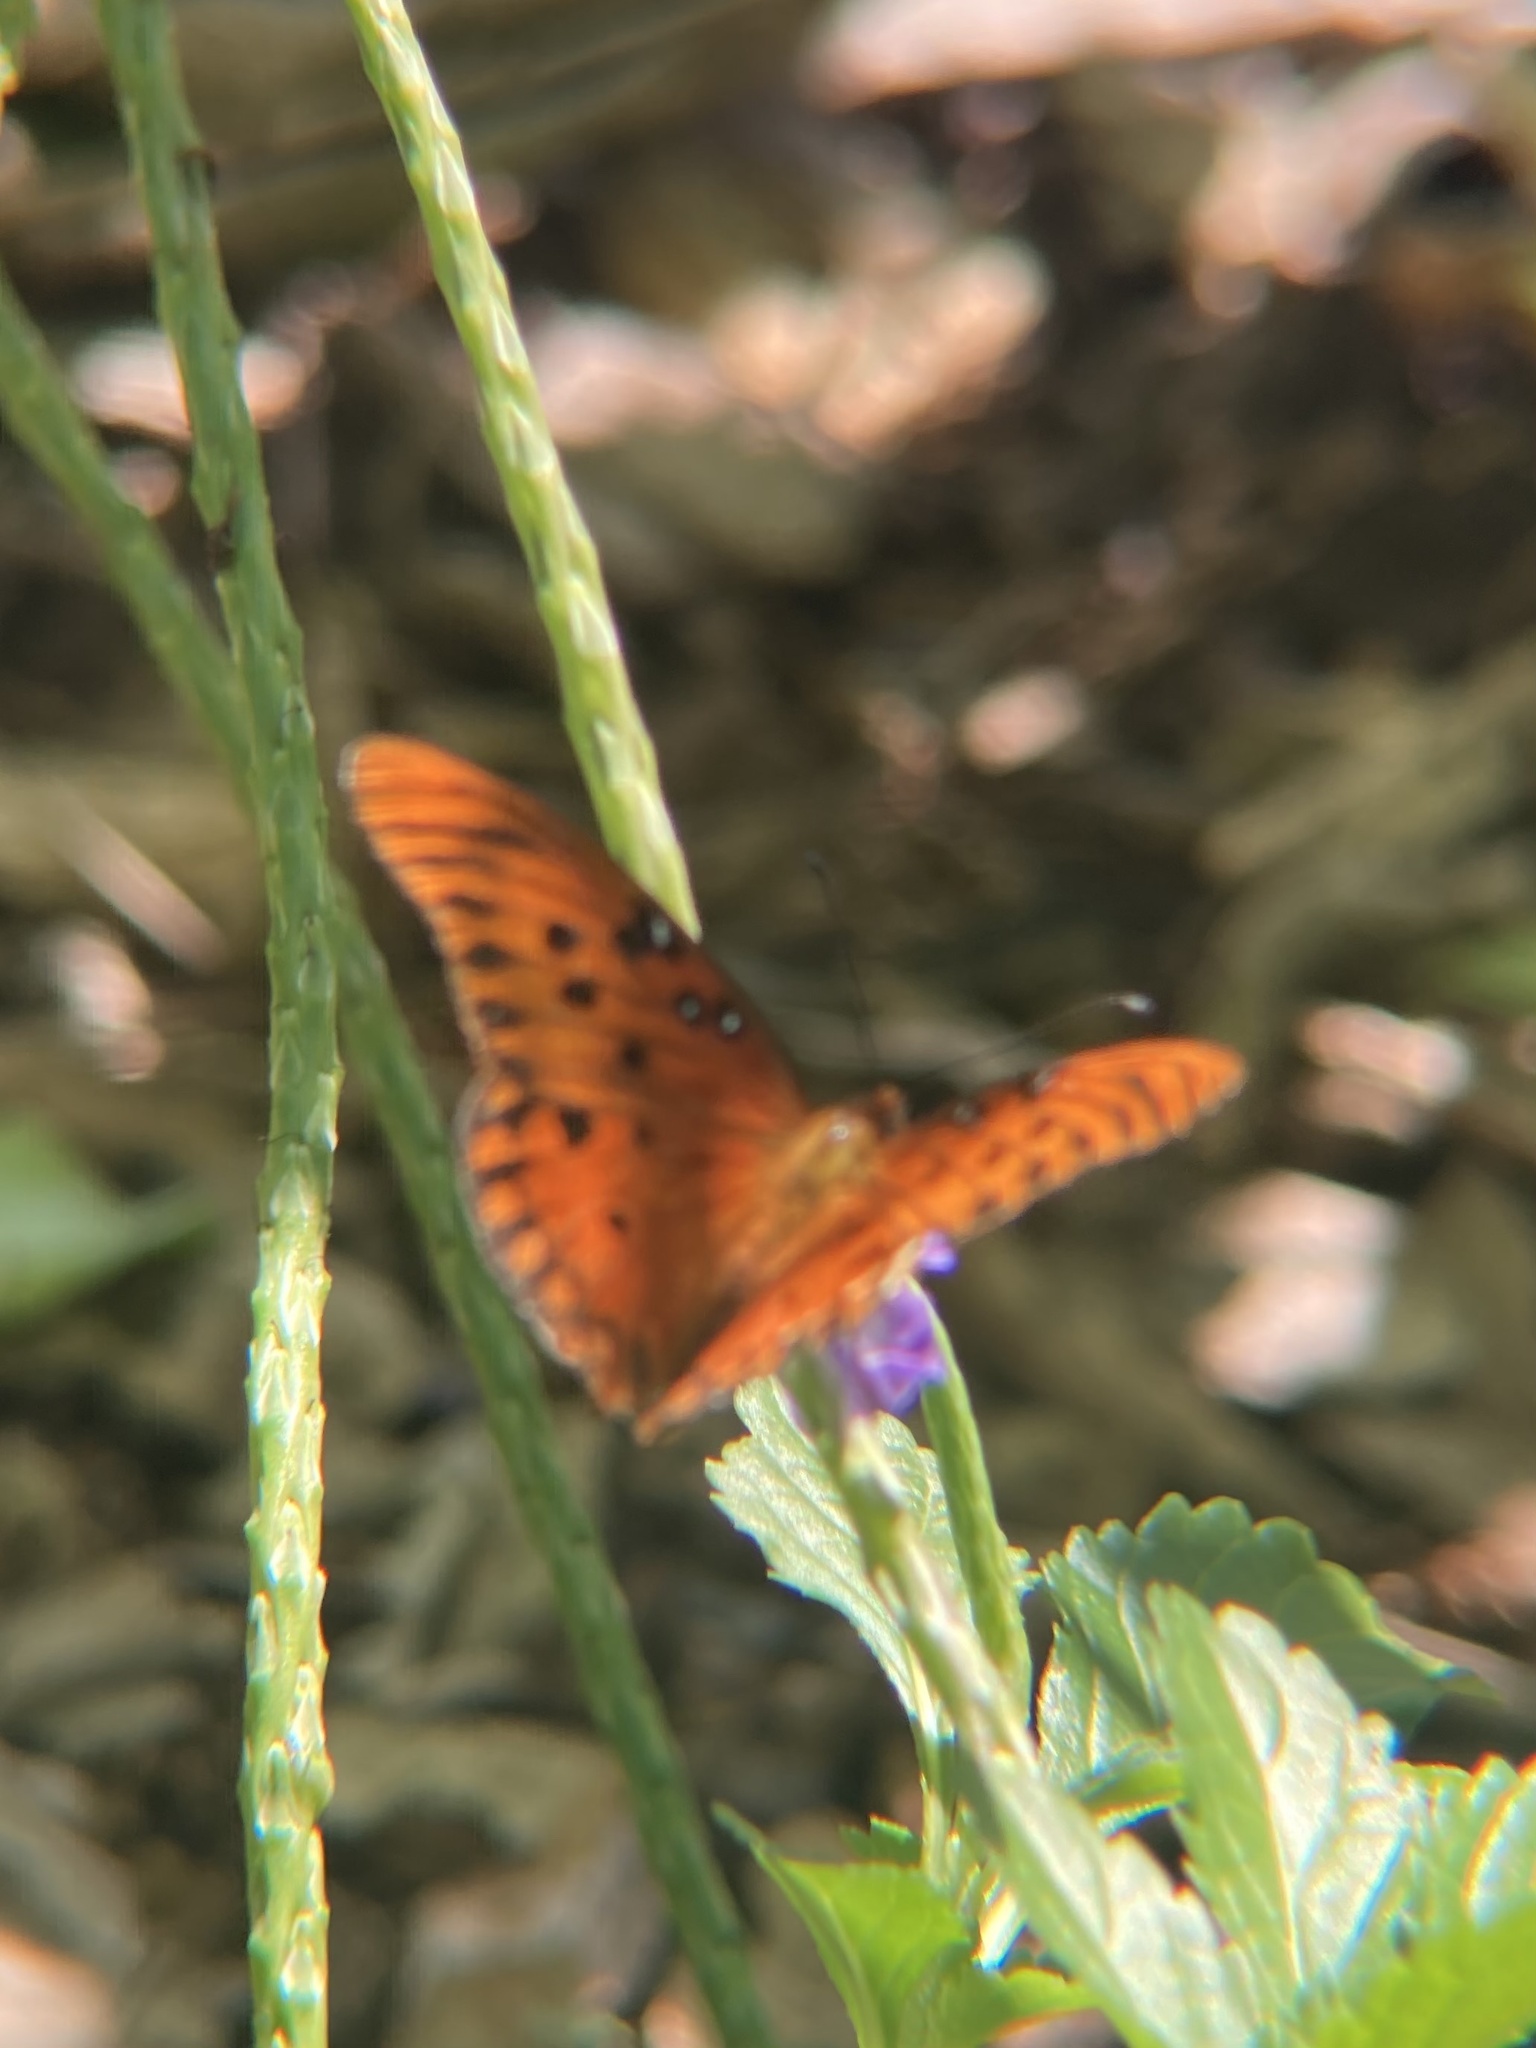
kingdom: Animalia
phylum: Arthropoda
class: Insecta
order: Lepidoptera
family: Nymphalidae
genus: Dione
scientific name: Dione vanillae
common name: Gulf fritillary
